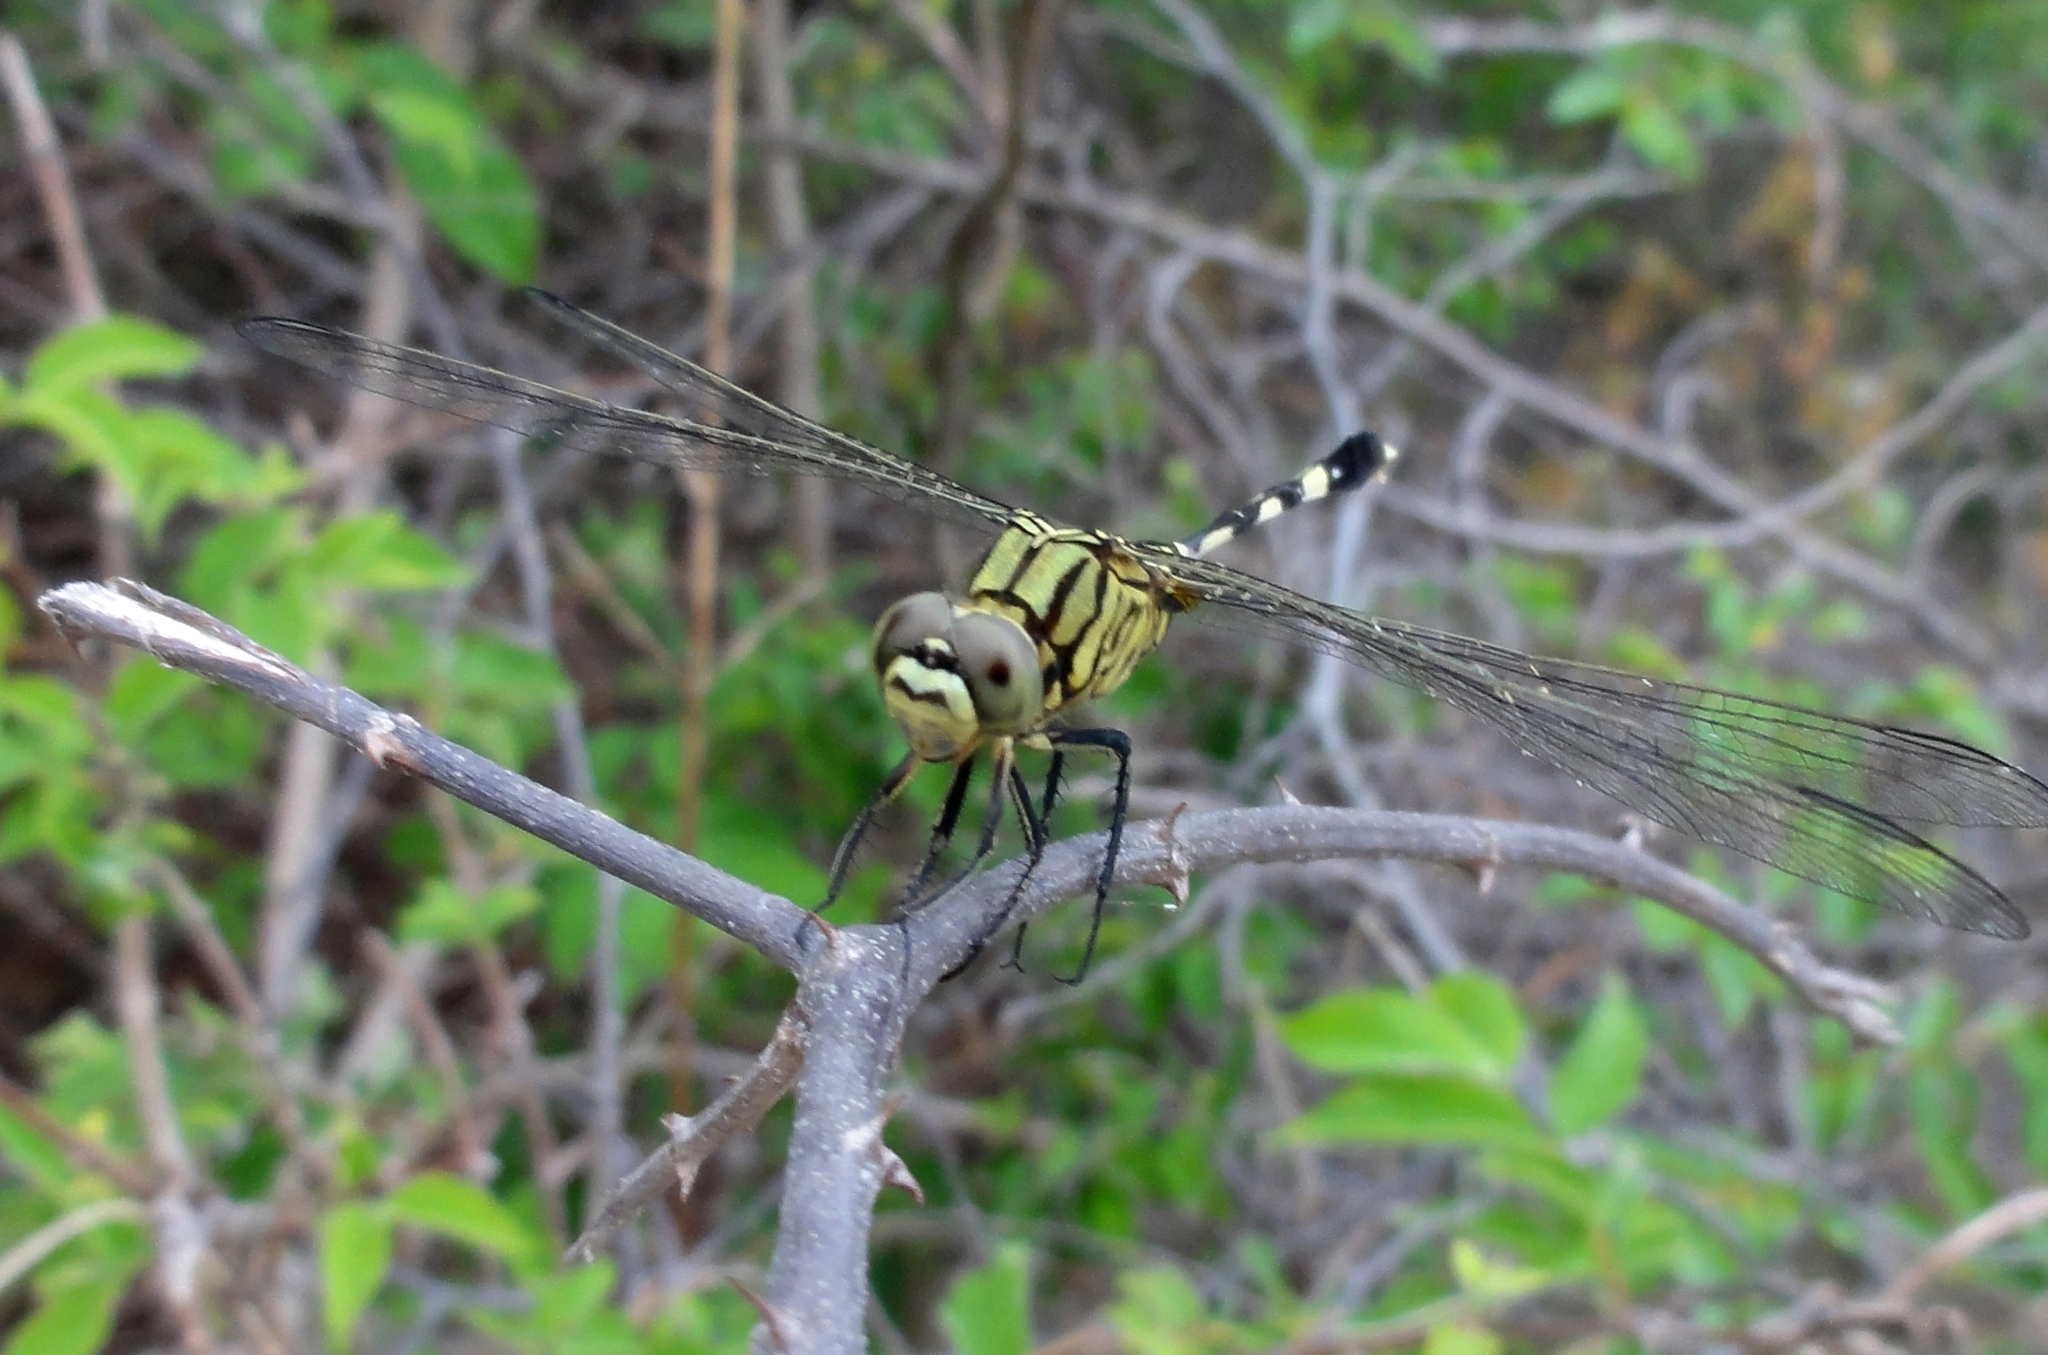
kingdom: Animalia
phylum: Arthropoda
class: Insecta
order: Odonata
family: Libellulidae
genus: Orthetrum
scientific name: Orthetrum sabina
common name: Slender skimmer
